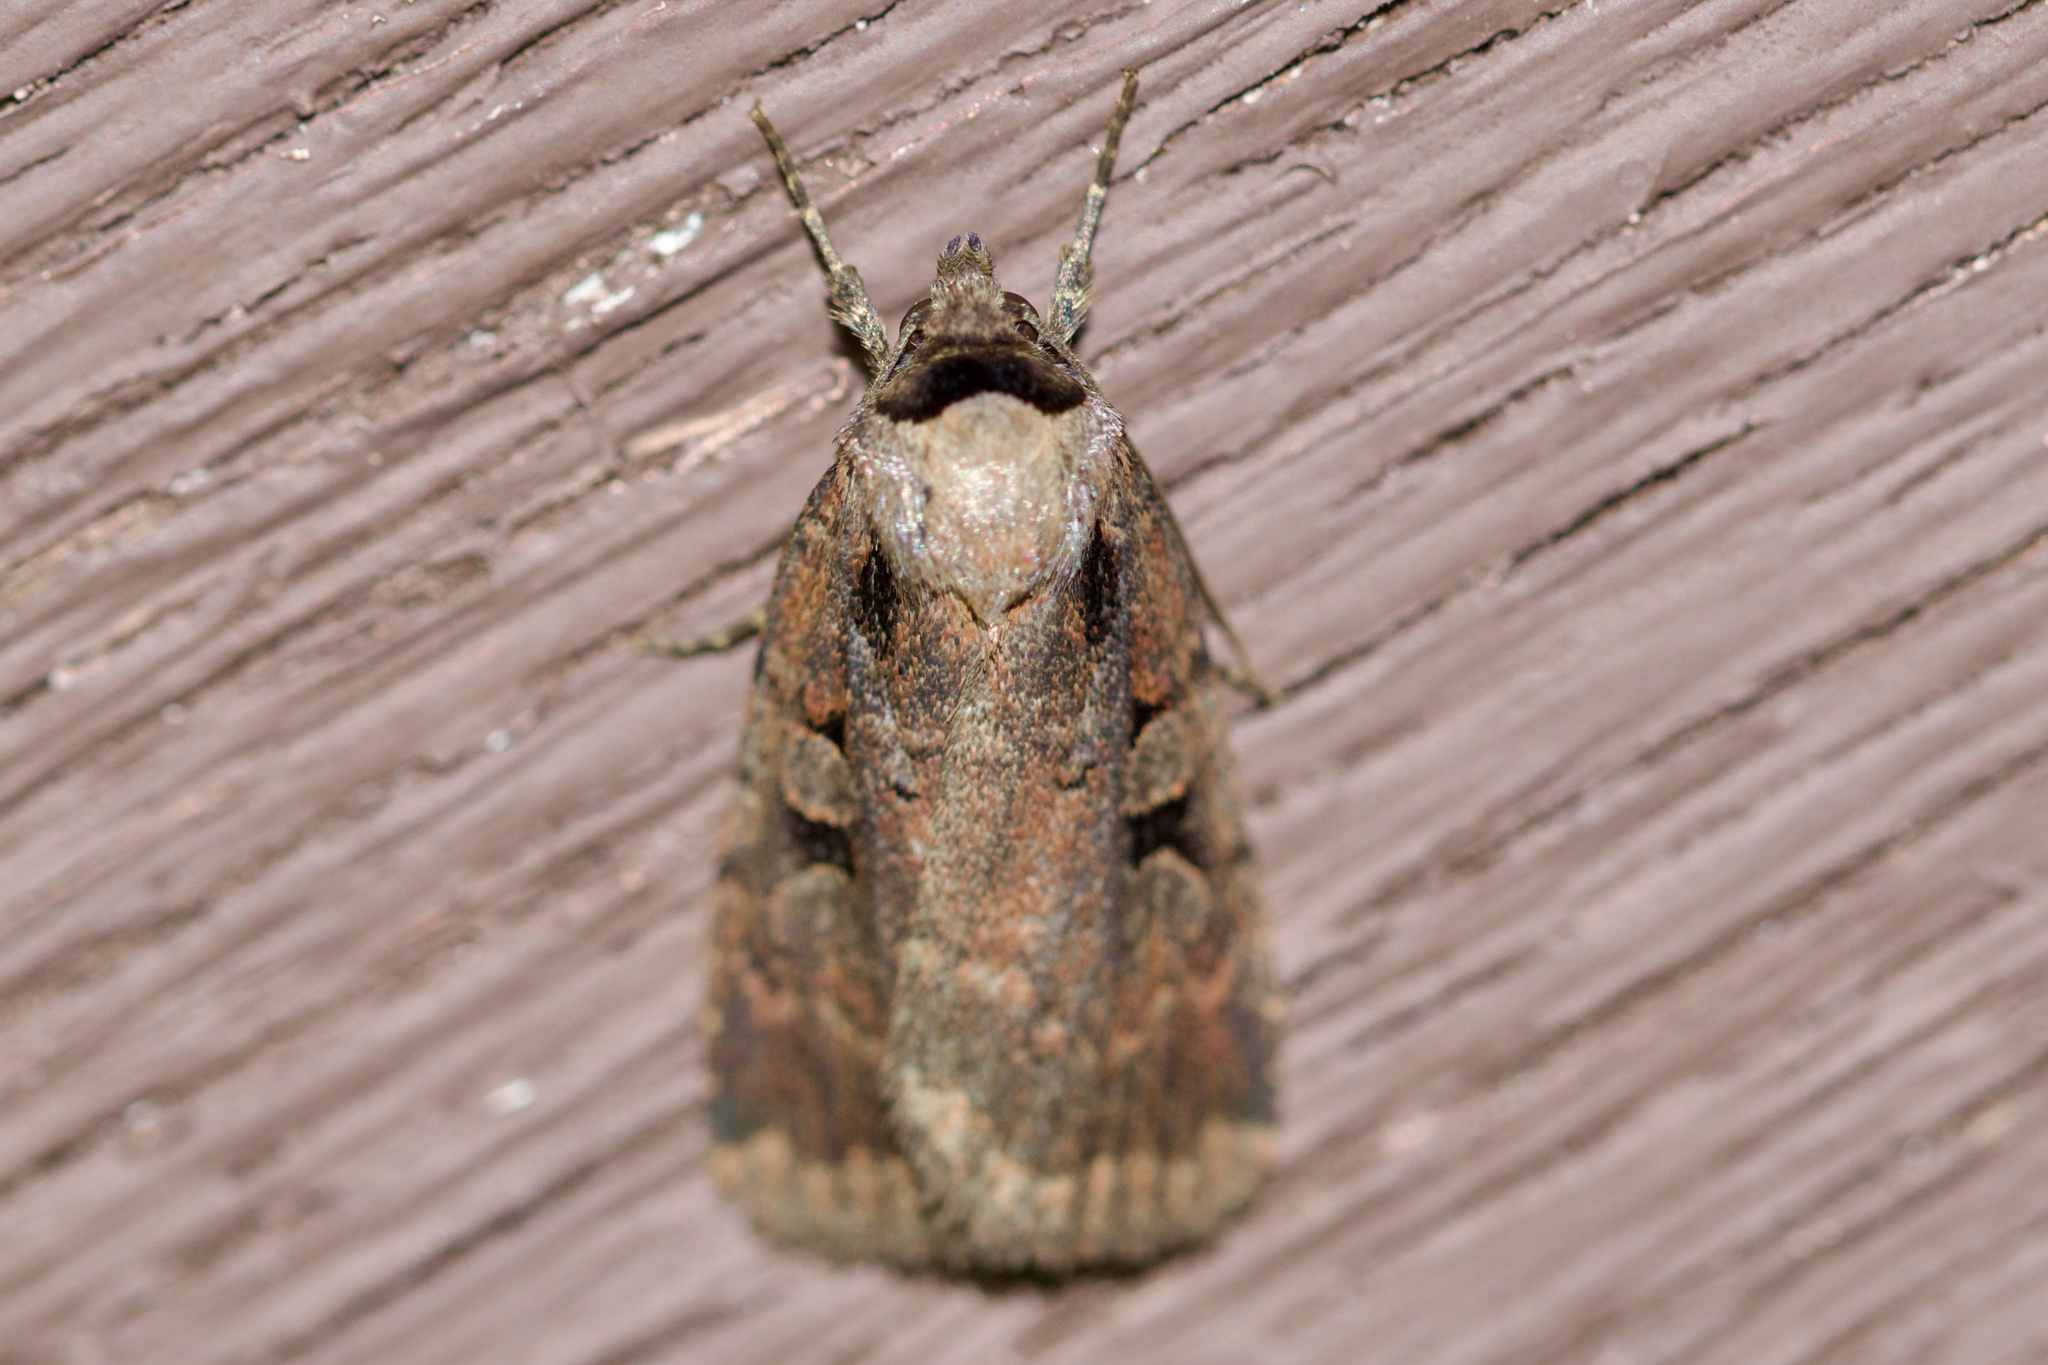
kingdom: Animalia
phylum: Arthropoda
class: Insecta
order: Lepidoptera
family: Noctuidae
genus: Eueretagrotis
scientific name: Eueretagrotis perattentus
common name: Two-spot dart moth
